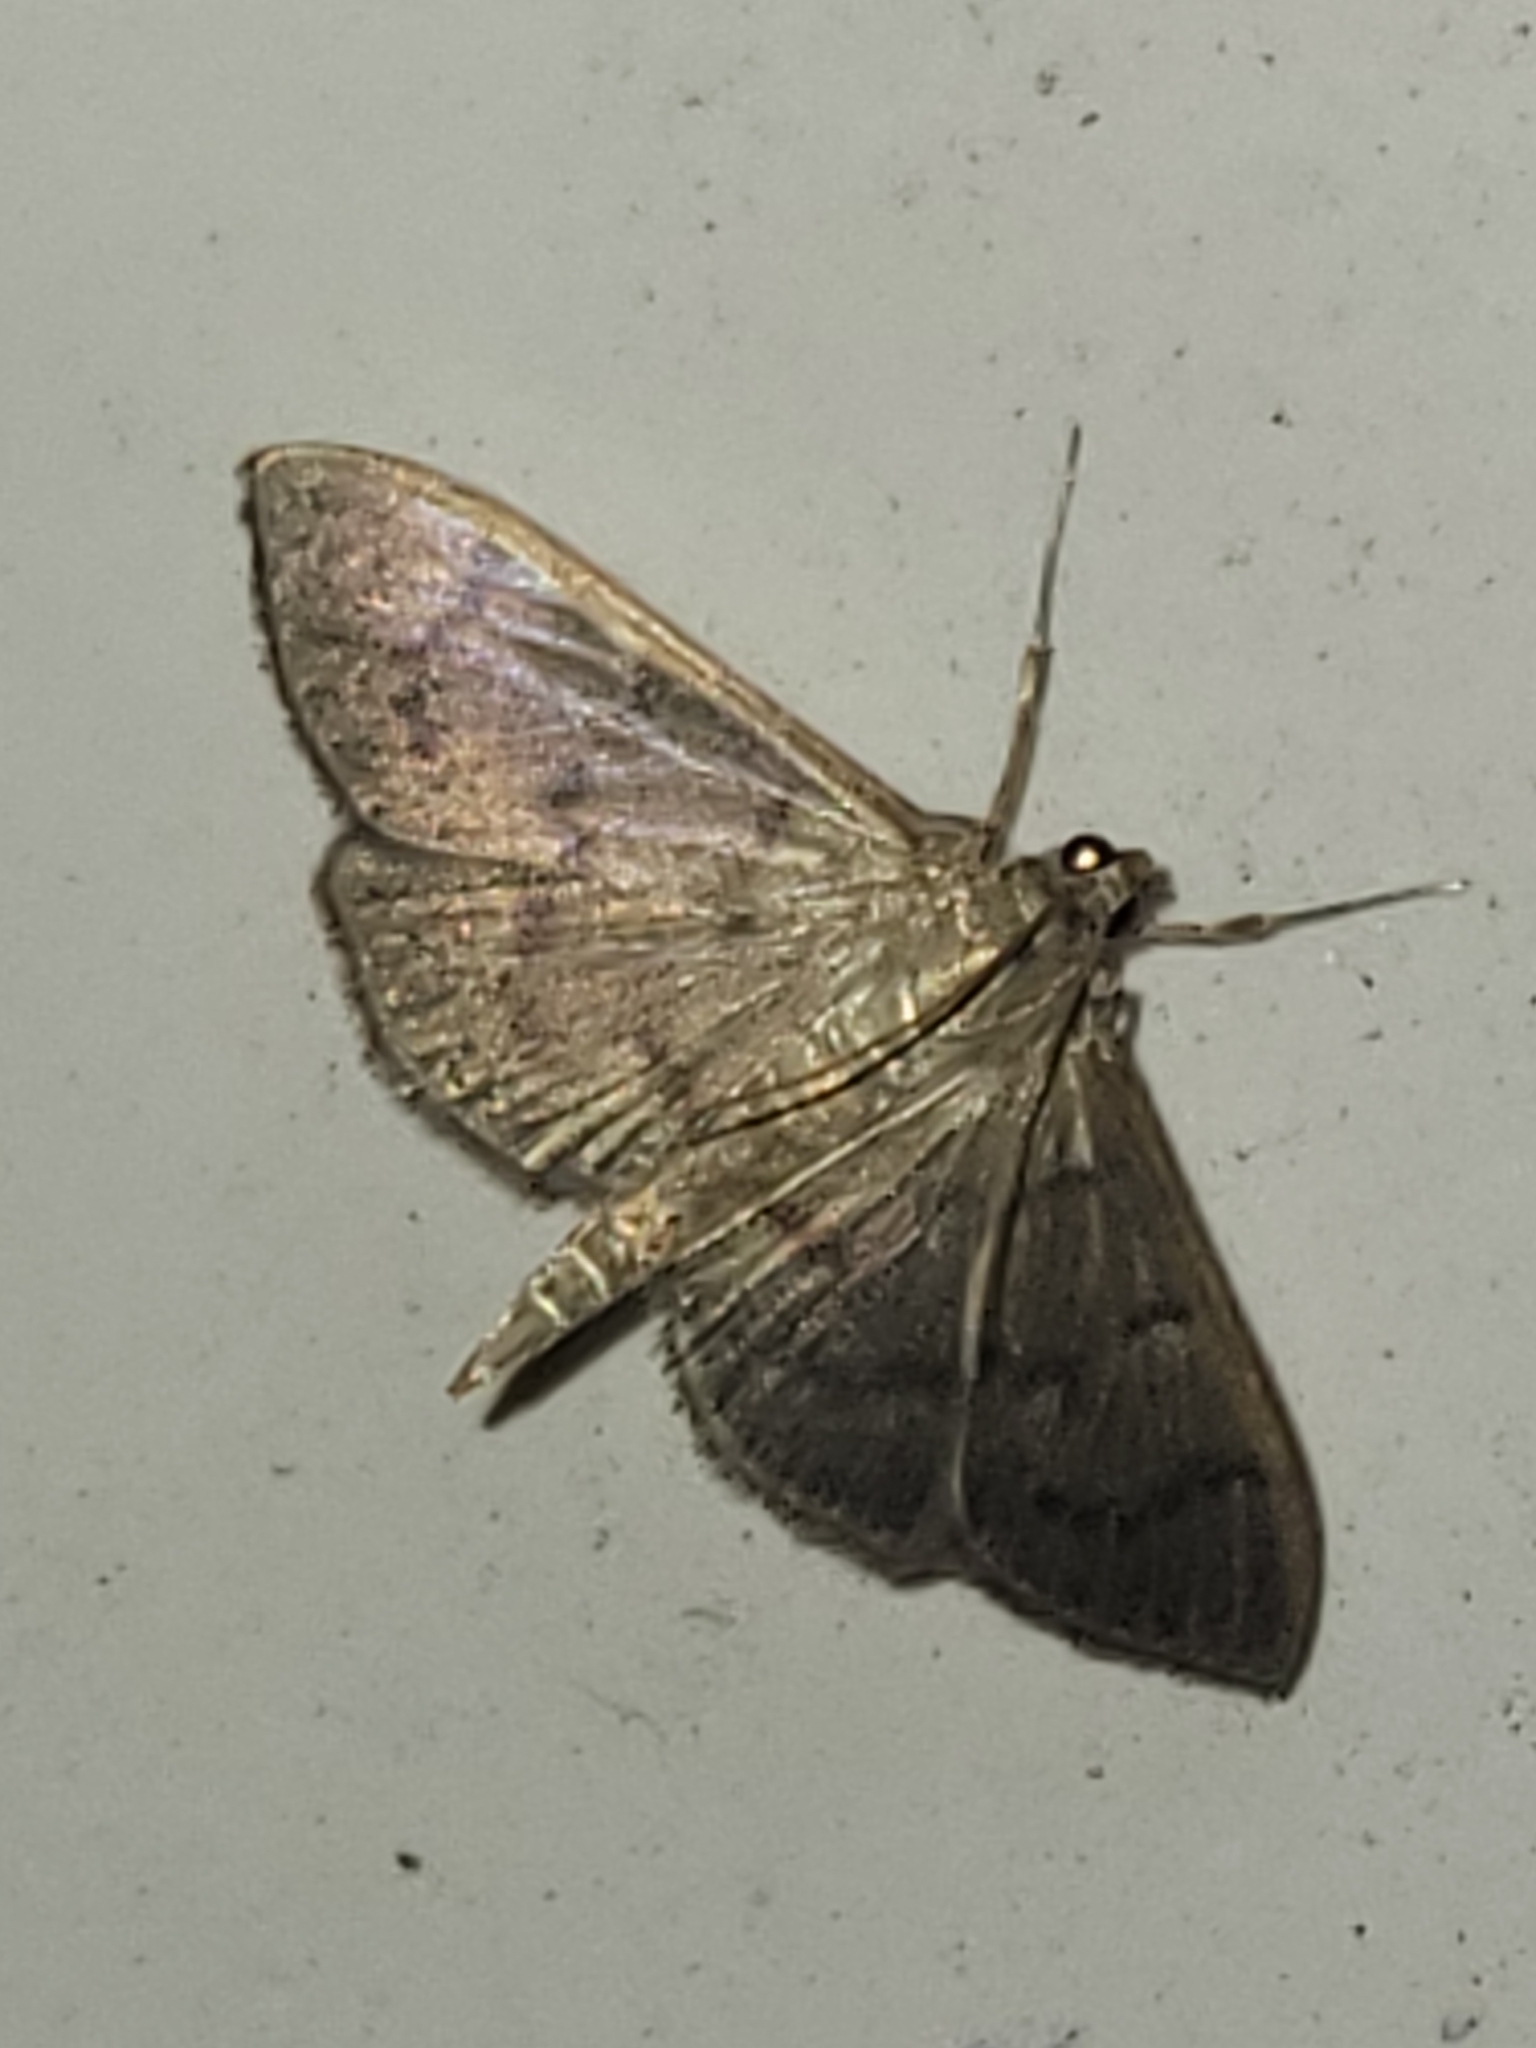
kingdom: Animalia
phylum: Arthropoda
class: Insecta
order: Lepidoptera
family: Crambidae
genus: Lamprophaia
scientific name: Lamprophaia ablactalis
